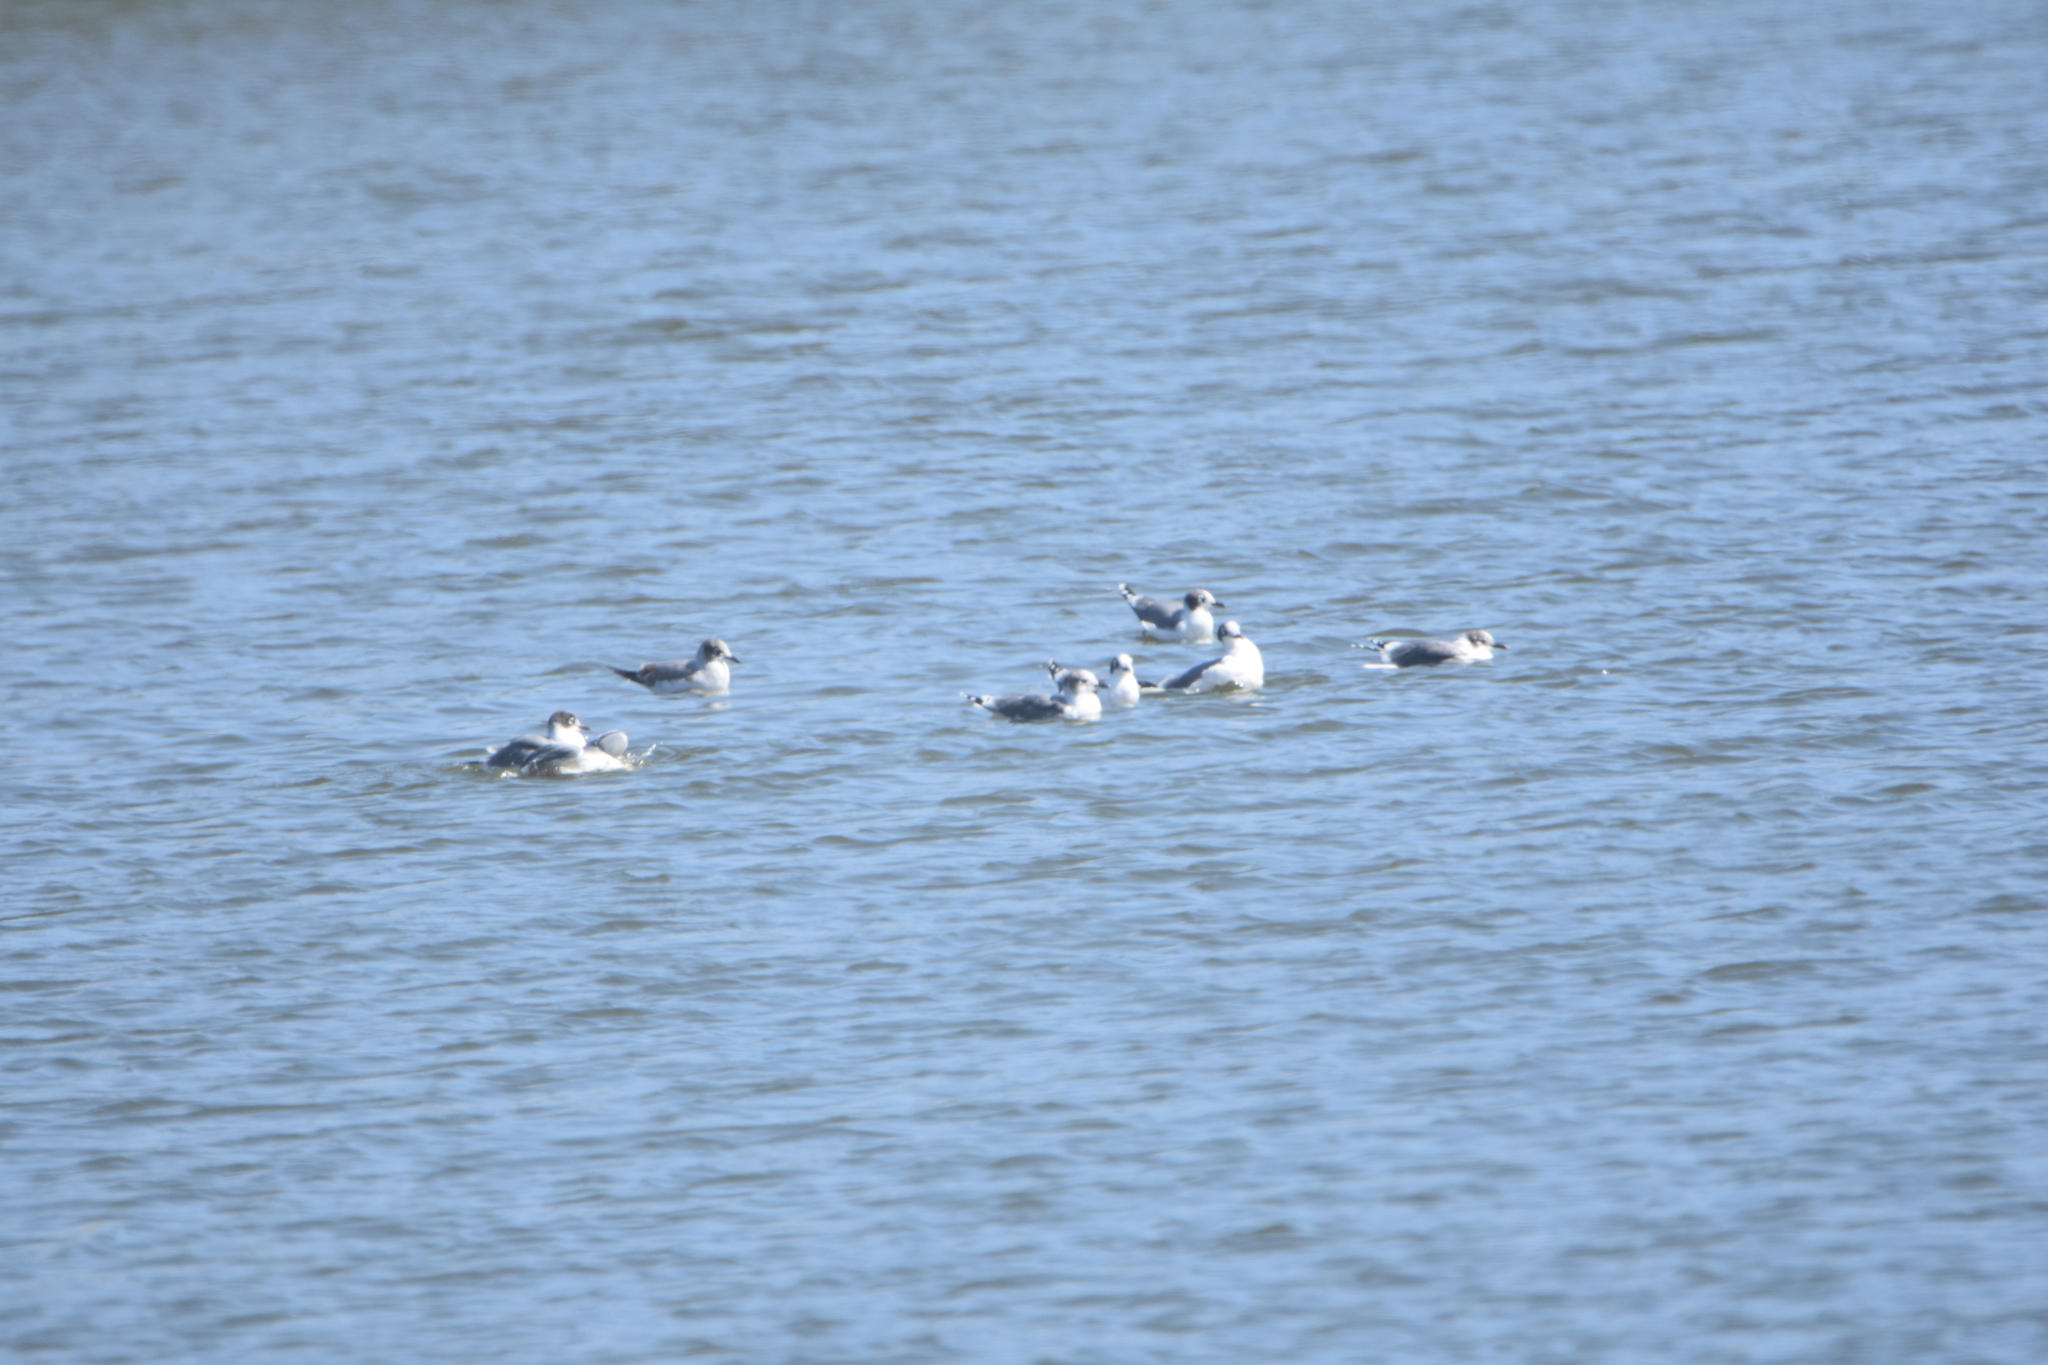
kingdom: Animalia
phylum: Chordata
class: Aves
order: Charadriiformes
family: Laridae
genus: Leucophaeus
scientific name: Leucophaeus pipixcan
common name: Franklin's gull
